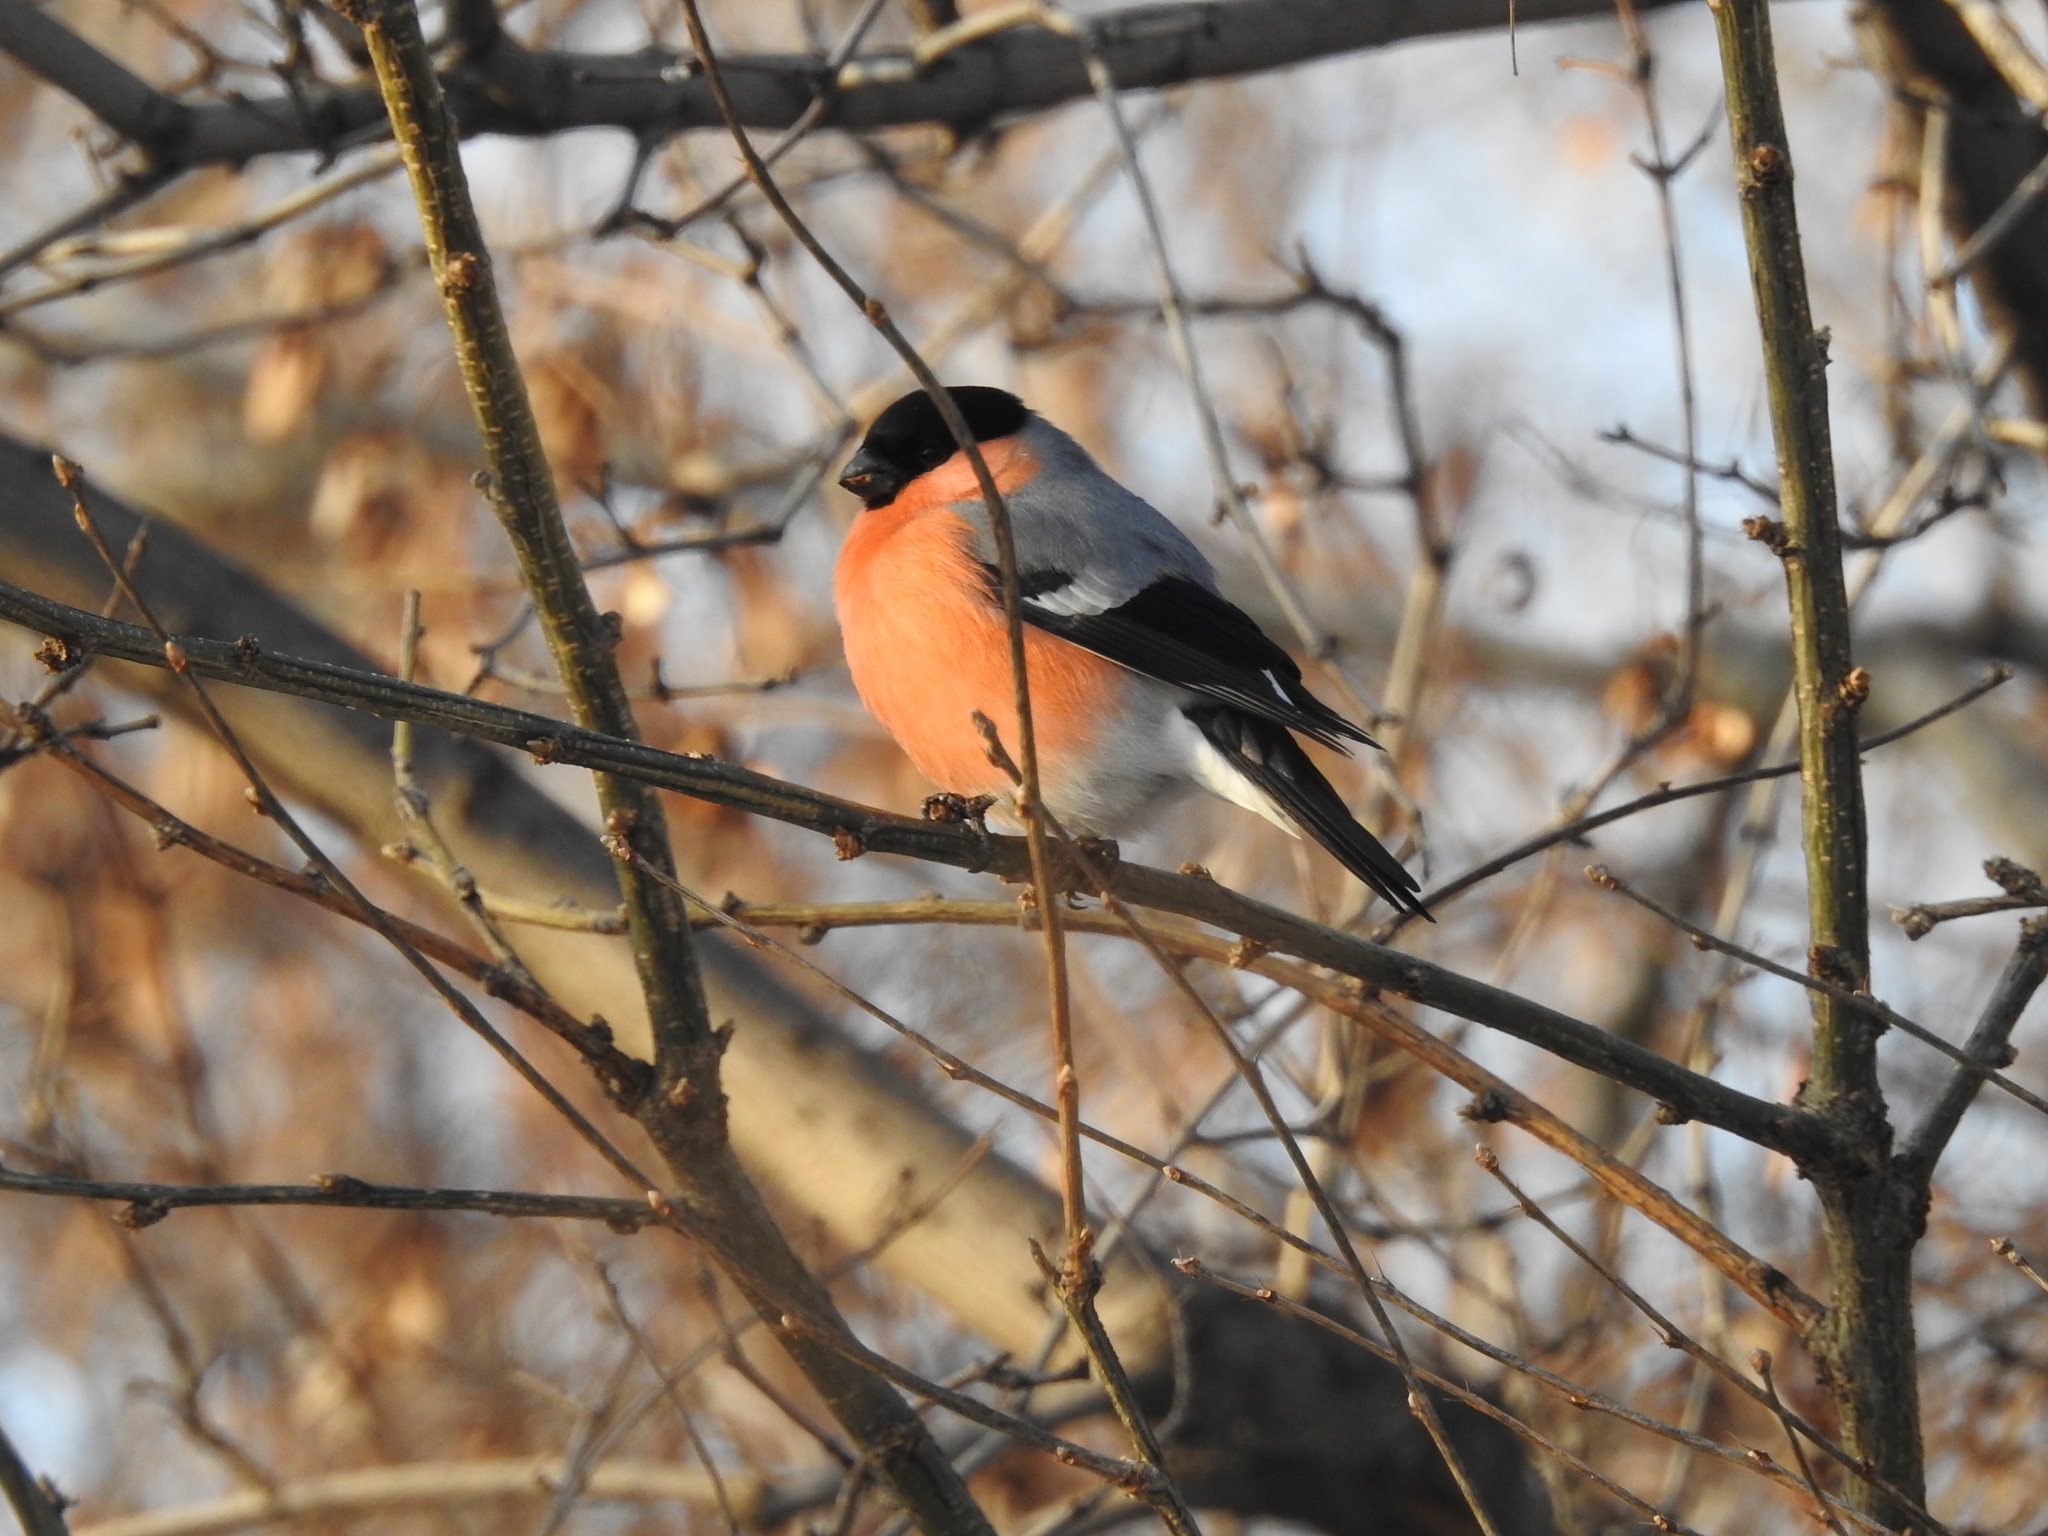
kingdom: Animalia
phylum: Chordata
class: Aves
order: Passeriformes
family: Fringillidae
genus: Pyrrhula
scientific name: Pyrrhula pyrrhula
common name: Eurasian bullfinch
